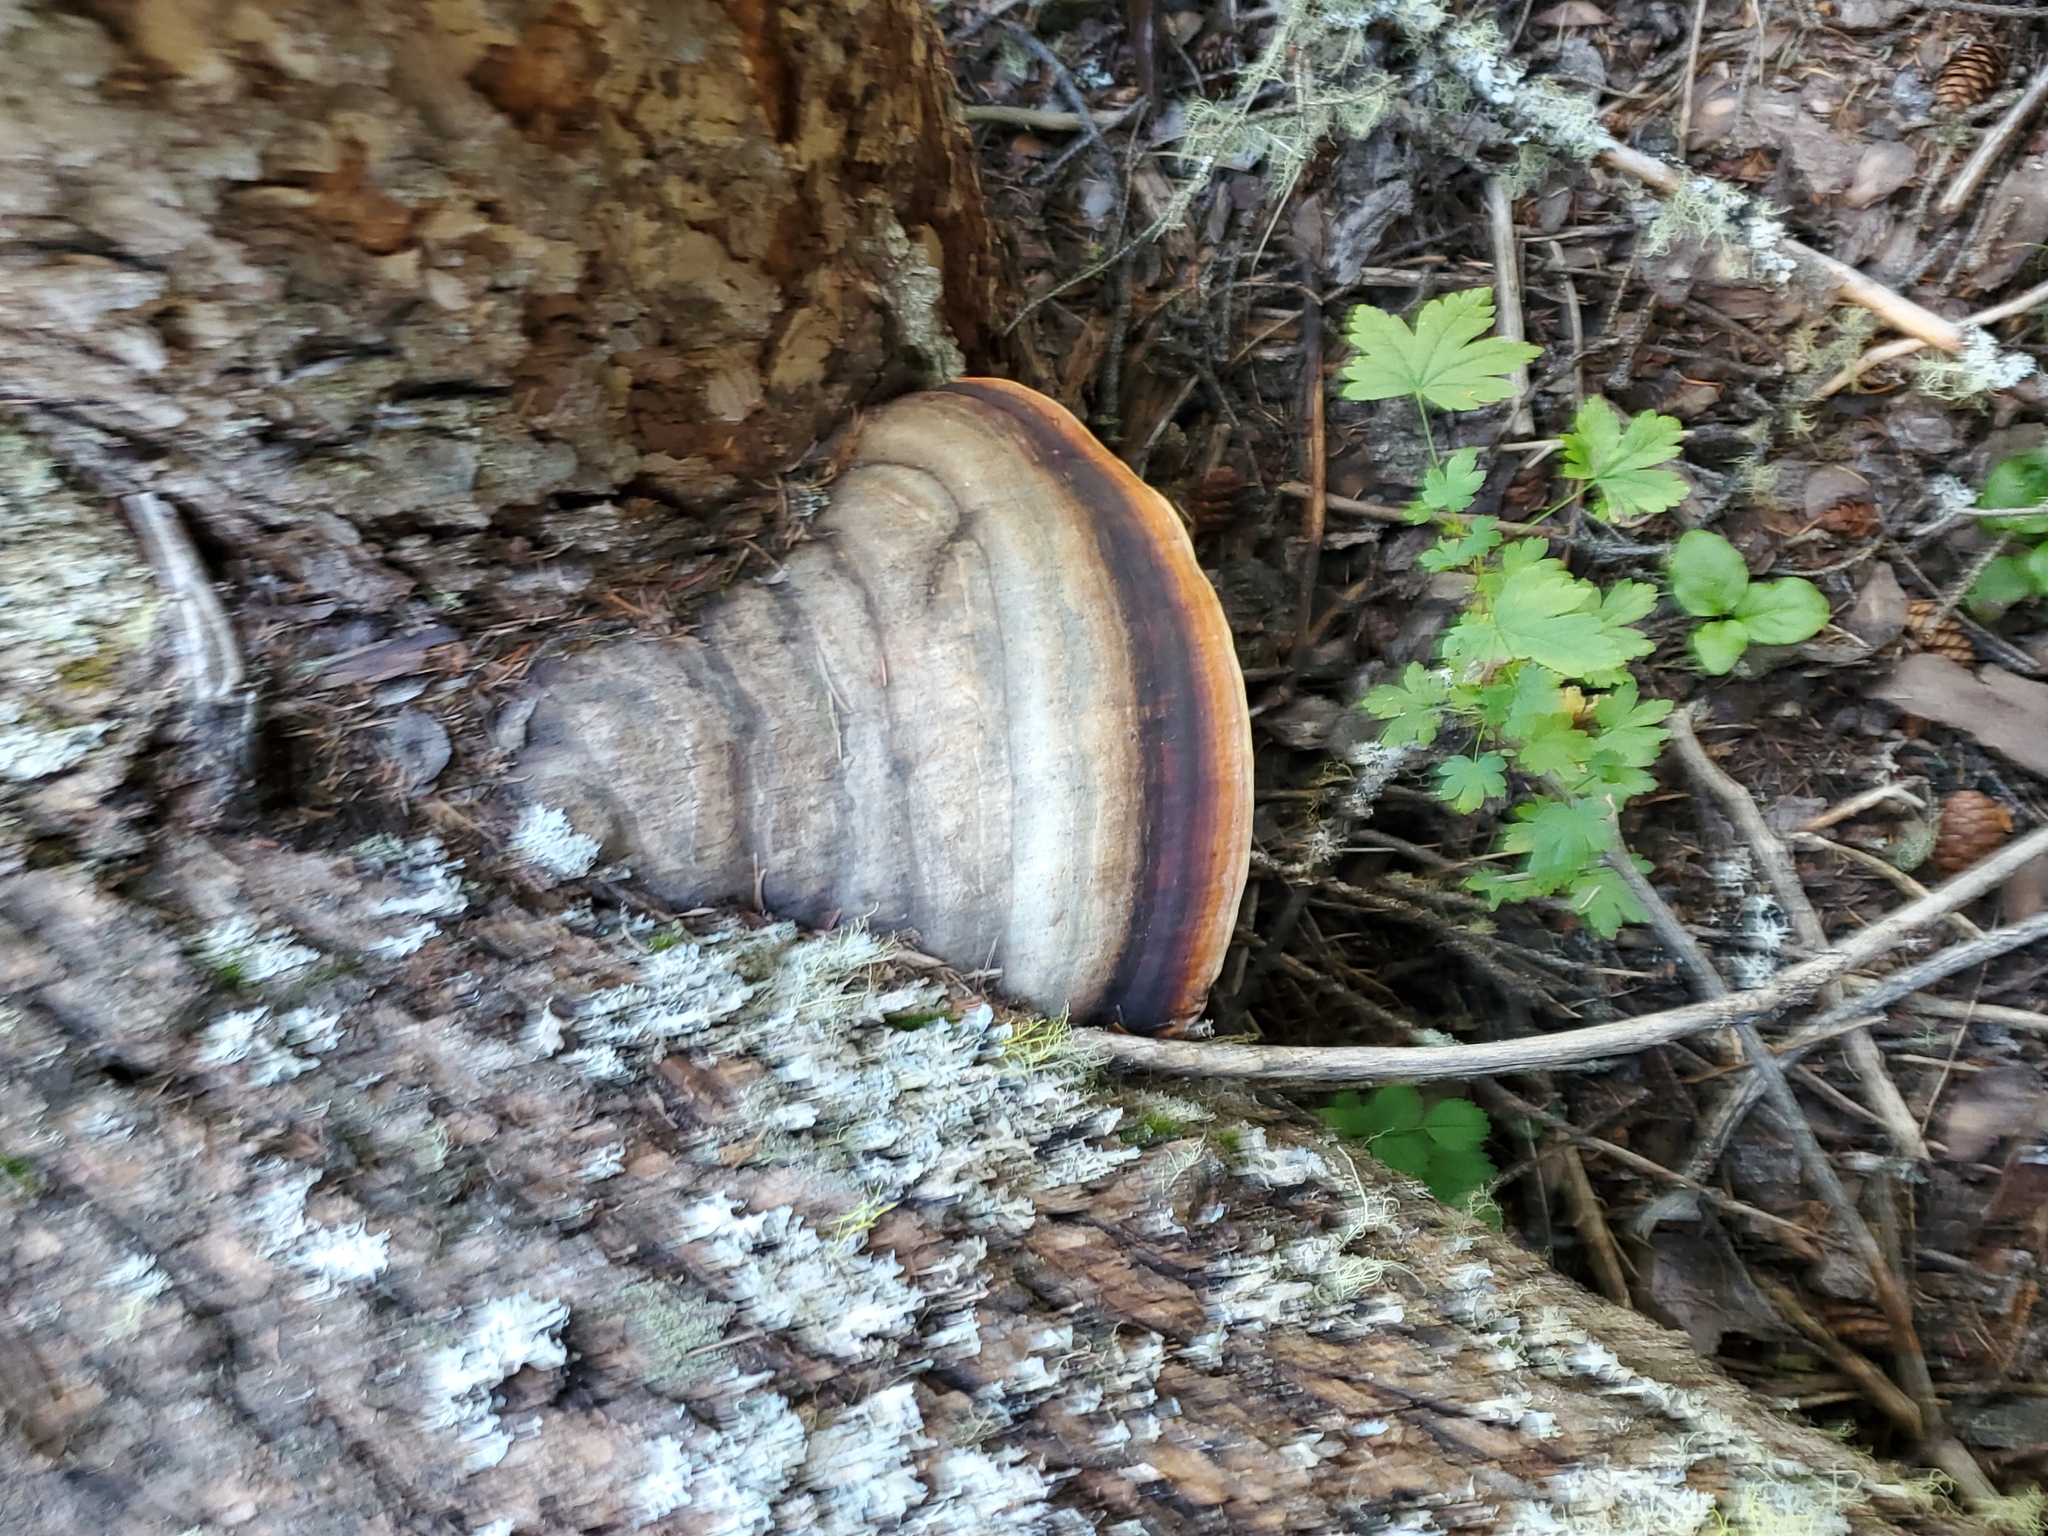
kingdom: Fungi
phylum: Basidiomycota
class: Agaricomycetes
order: Polyporales
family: Fomitopsidaceae
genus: Fomitopsis
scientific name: Fomitopsis mounceae
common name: Northern red belt
